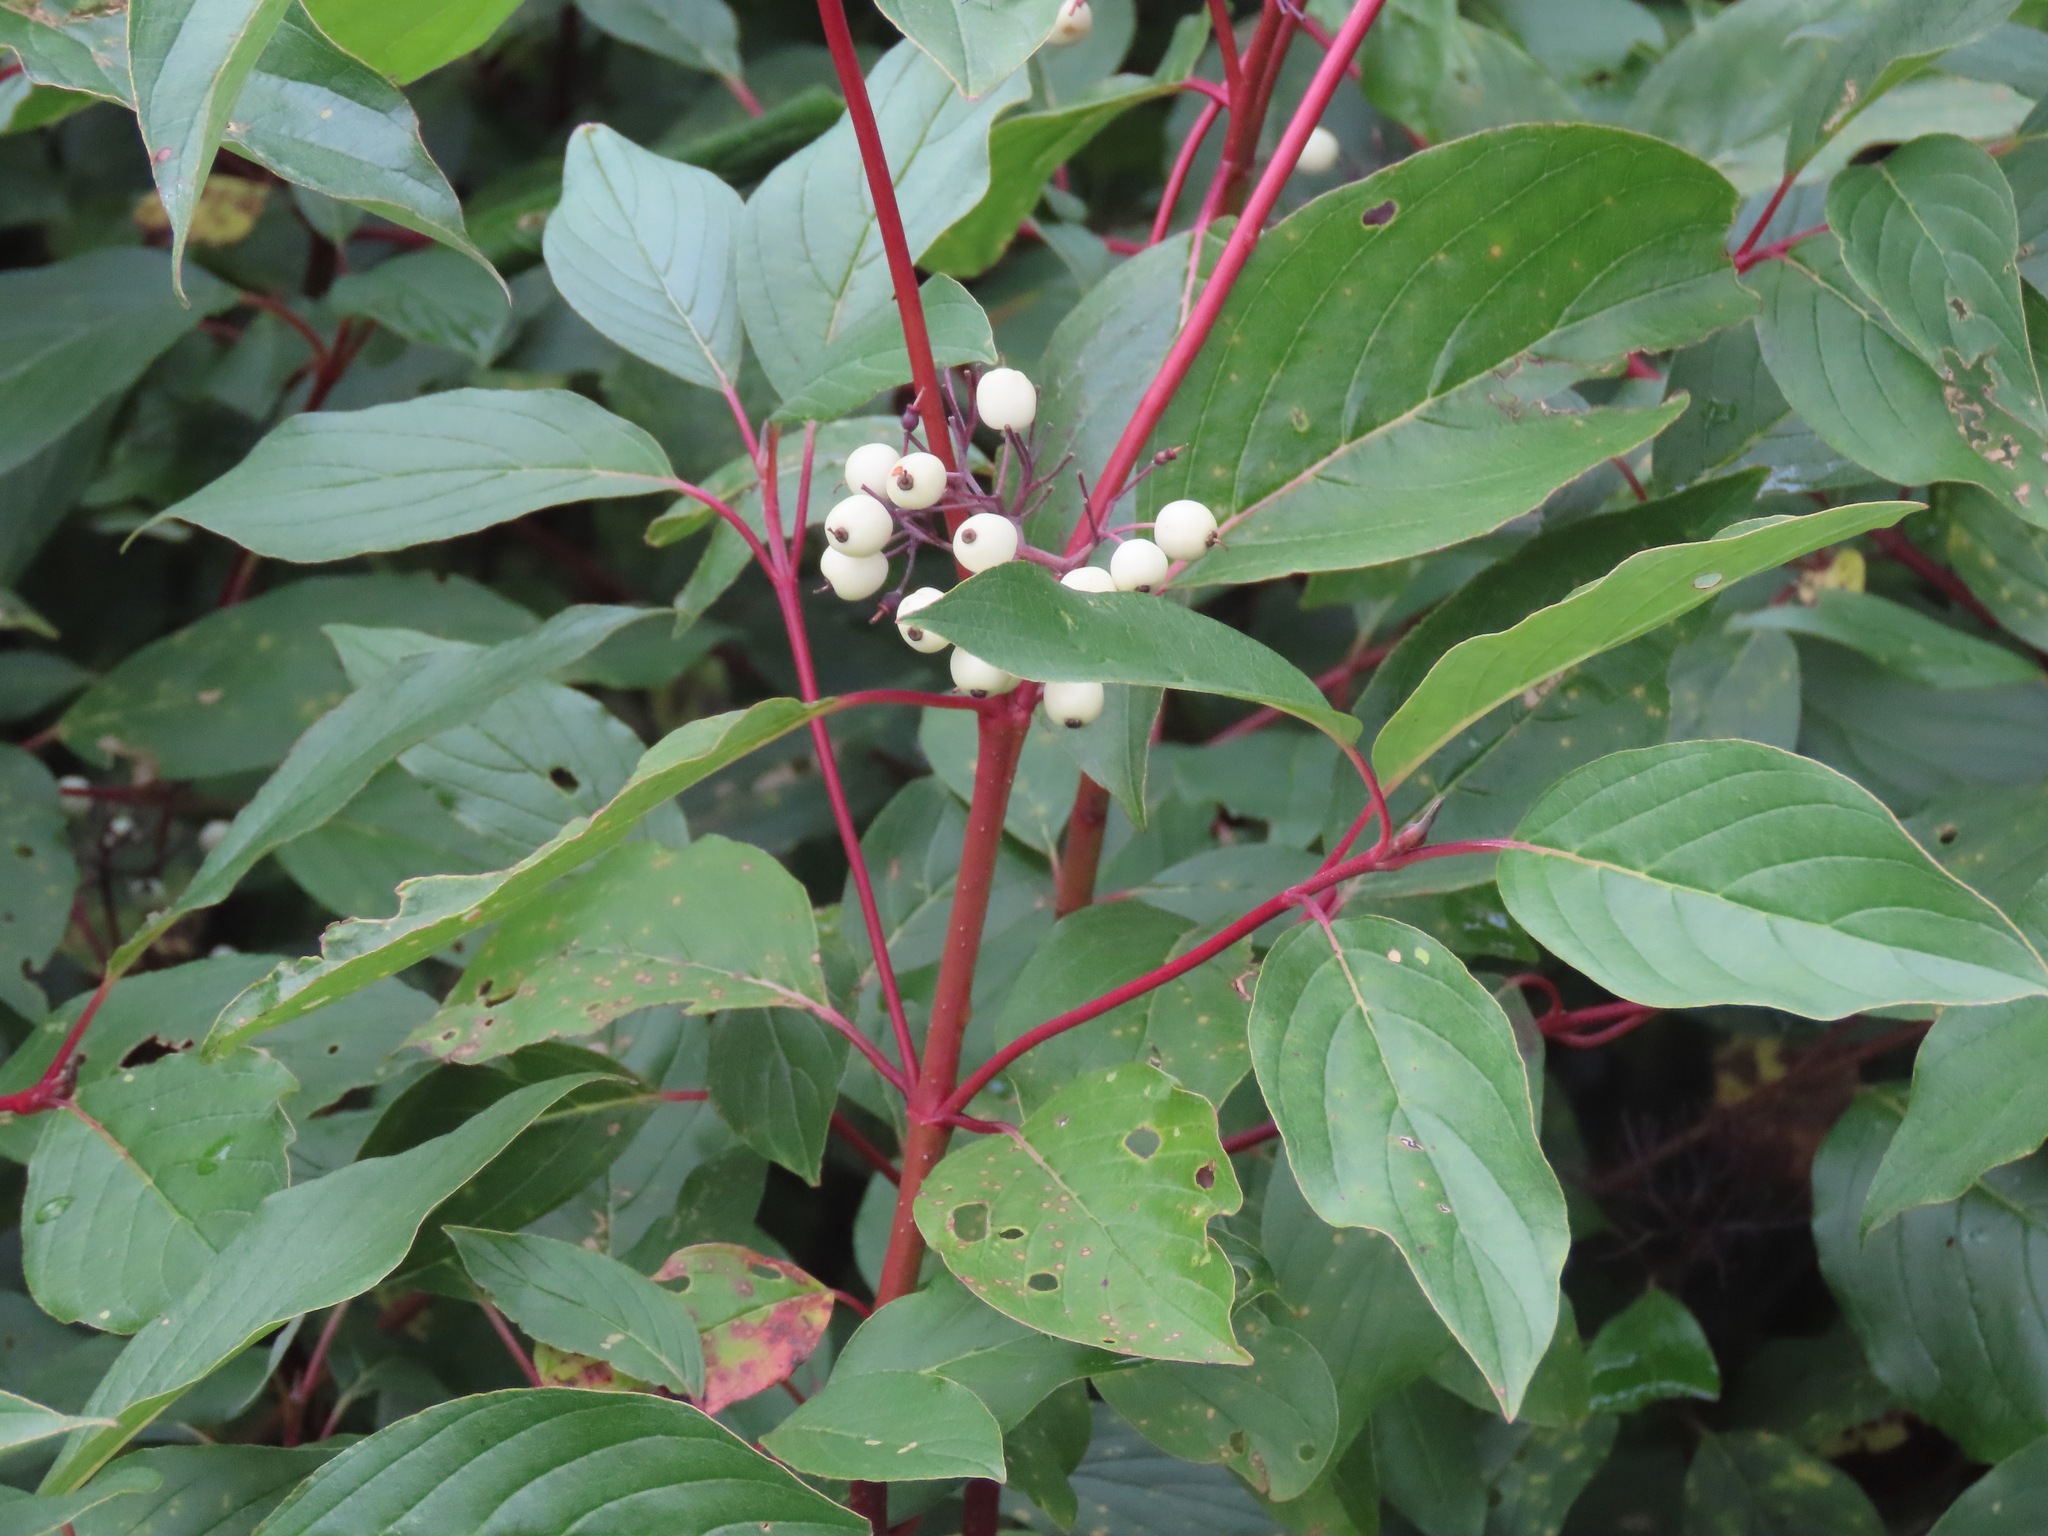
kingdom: Plantae
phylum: Tracheophyta
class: Magnoliopsida
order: Cornales
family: Cornaceae
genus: Cornus
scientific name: Cornus sericea
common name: Red-osier dogwood
